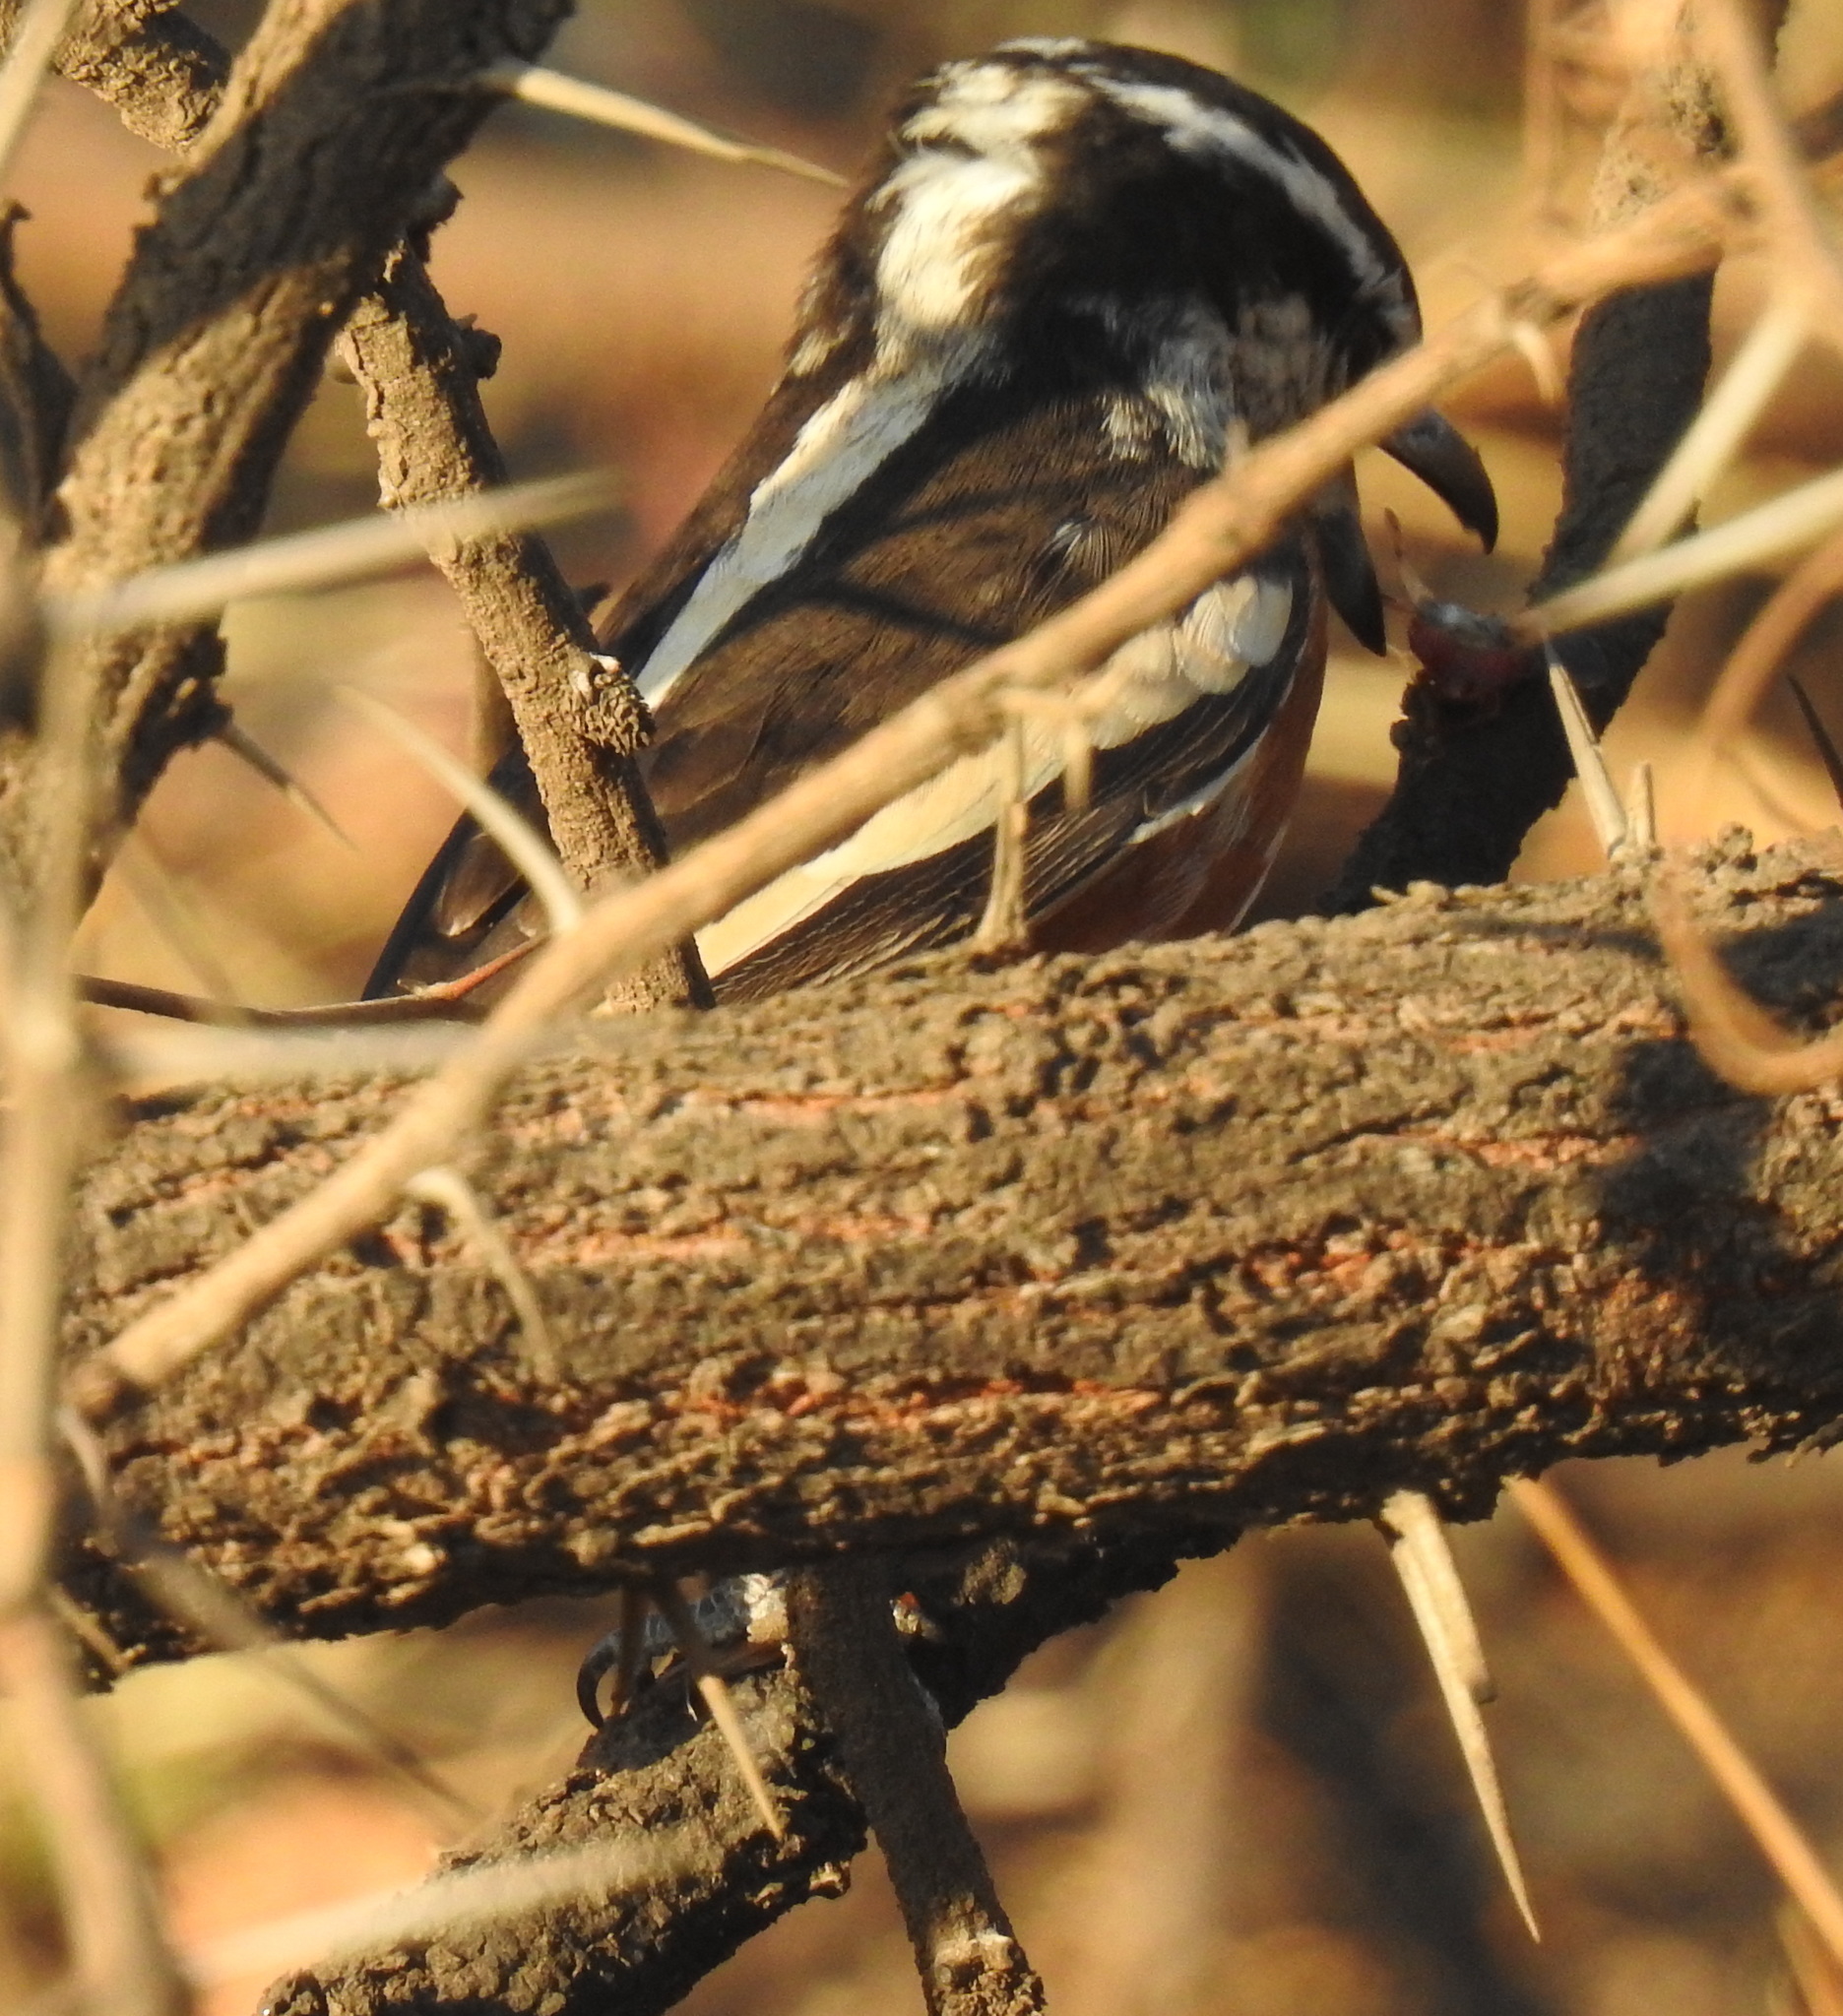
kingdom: Animalia
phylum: Chordata
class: Aves
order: Passeriformes
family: Malaconotidae
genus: Nilaus
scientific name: Nilaus afer
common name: Brubru
